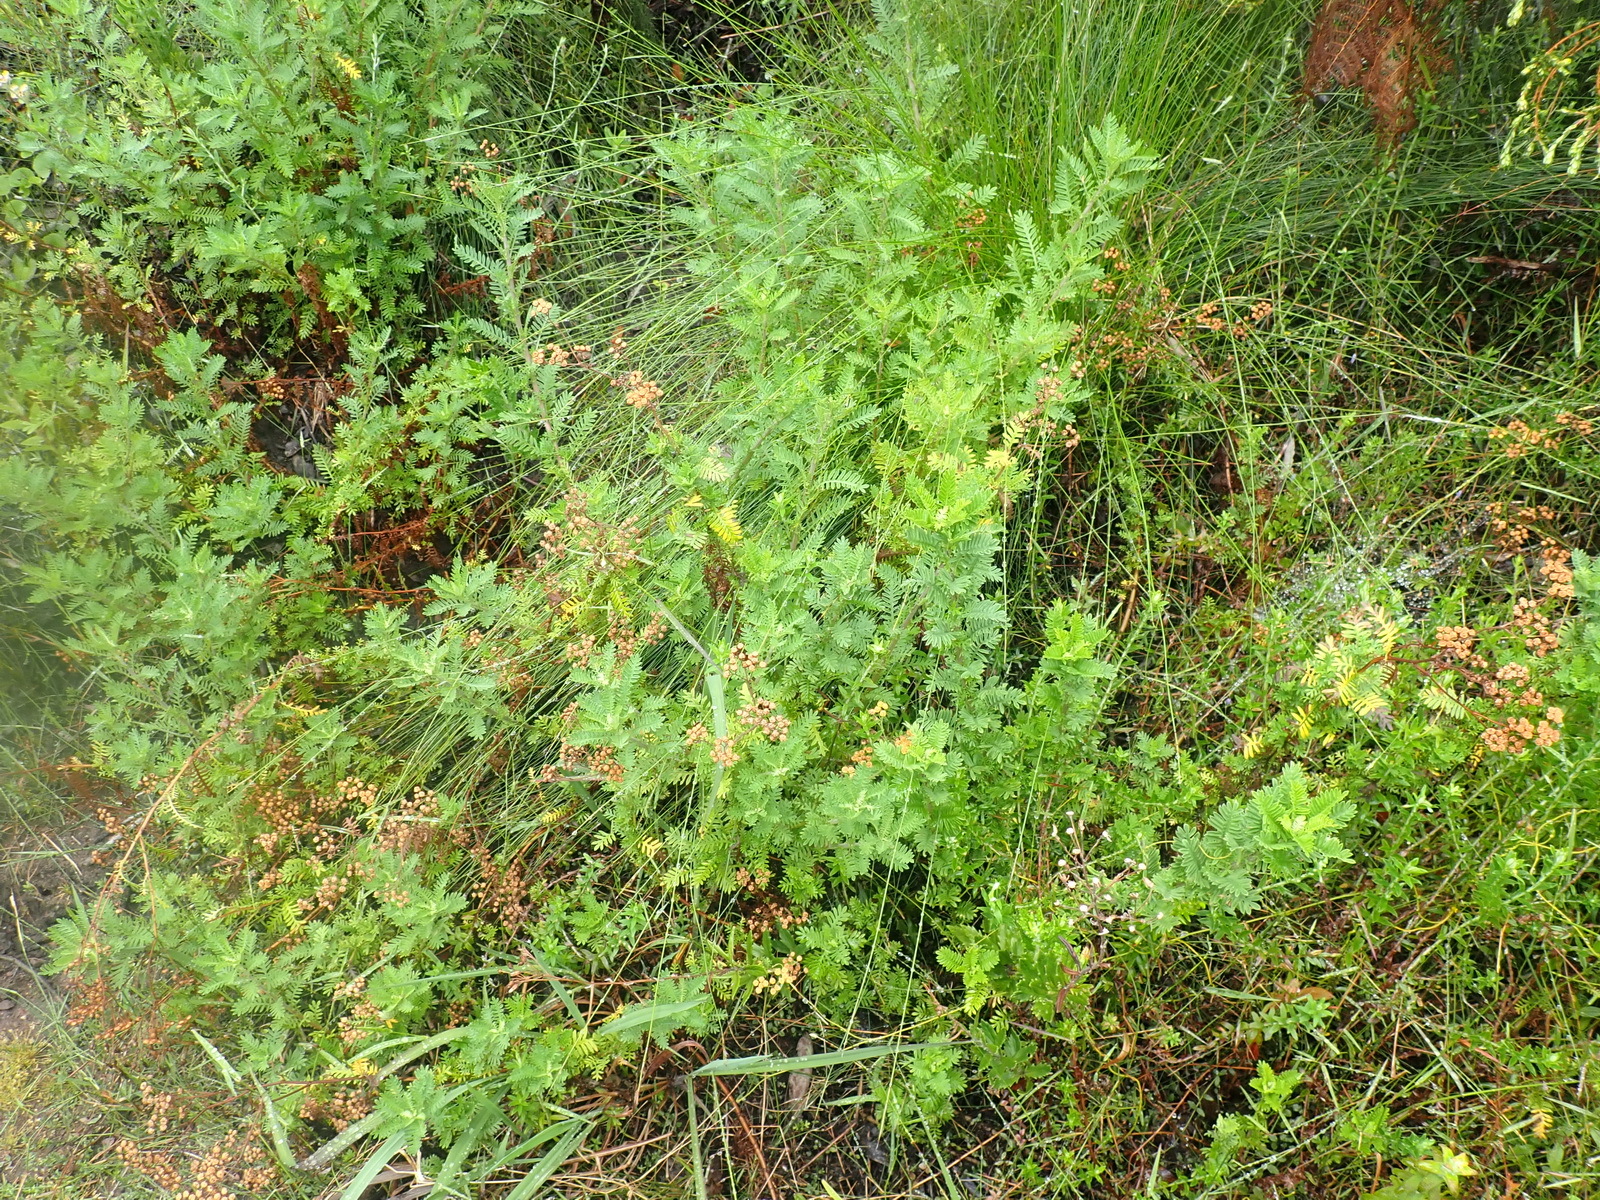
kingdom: Plantae
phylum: Tracheophyta
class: Magnoliopsida
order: Asterales
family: Asteraceae
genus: Hippia
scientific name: Hippia frutescens
